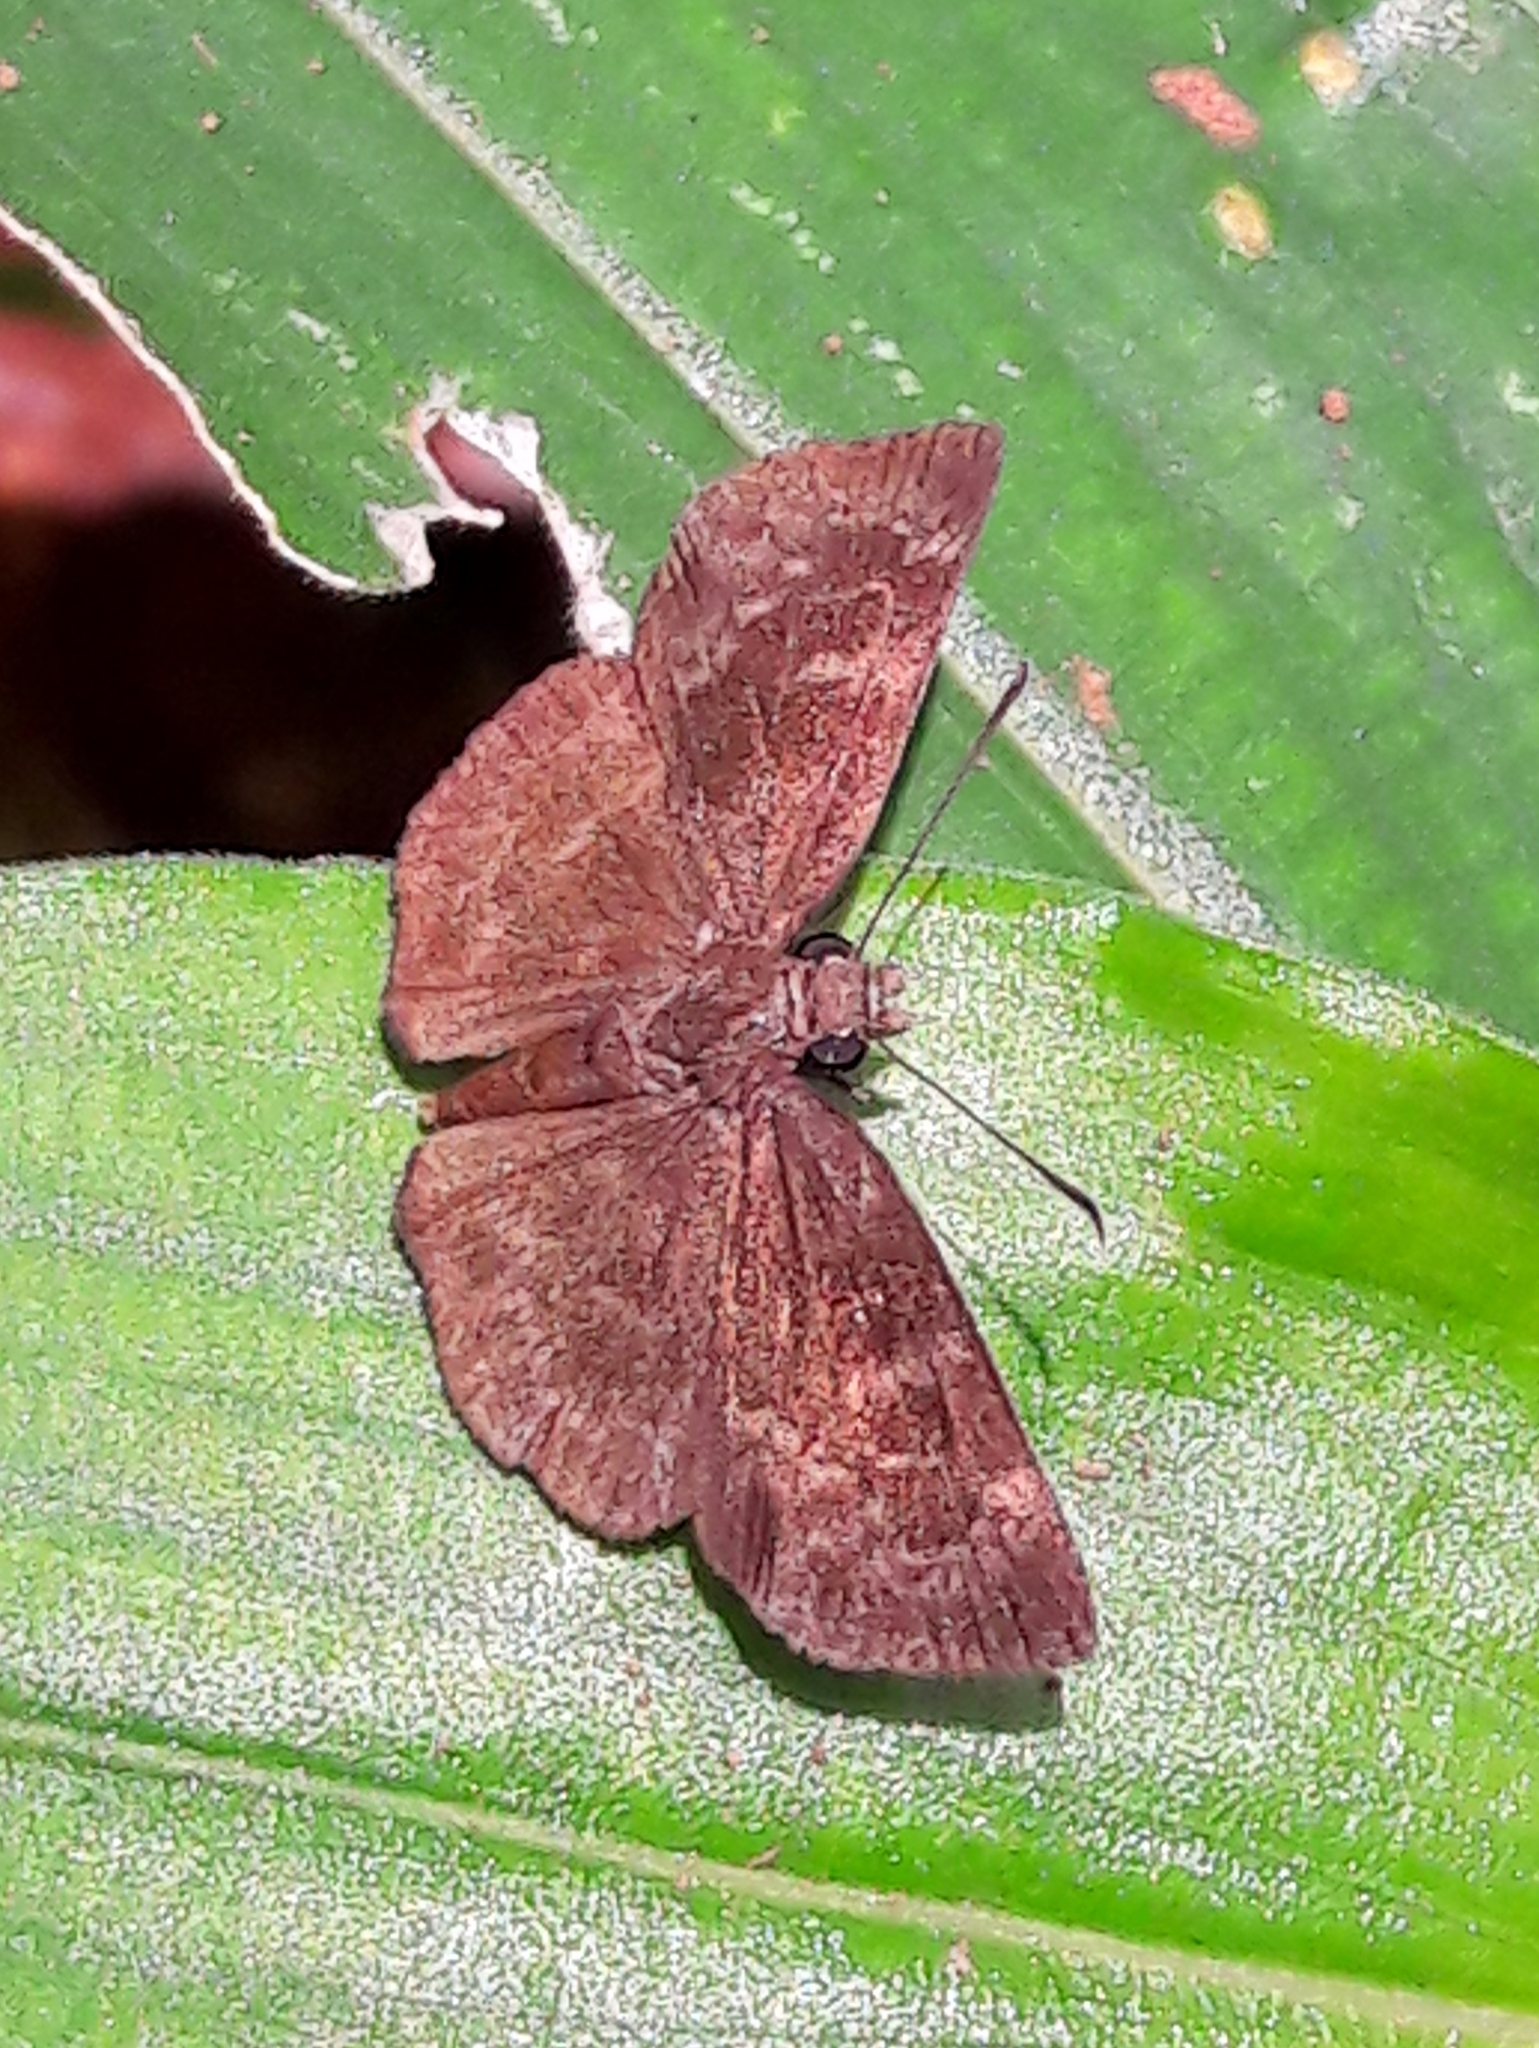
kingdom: Animalia
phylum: Arthropoda
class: Insecta
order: Lepidoptera
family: Hesperiidae
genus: Ouleus
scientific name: Ouleus fridericus
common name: Fridericus spreadwing
